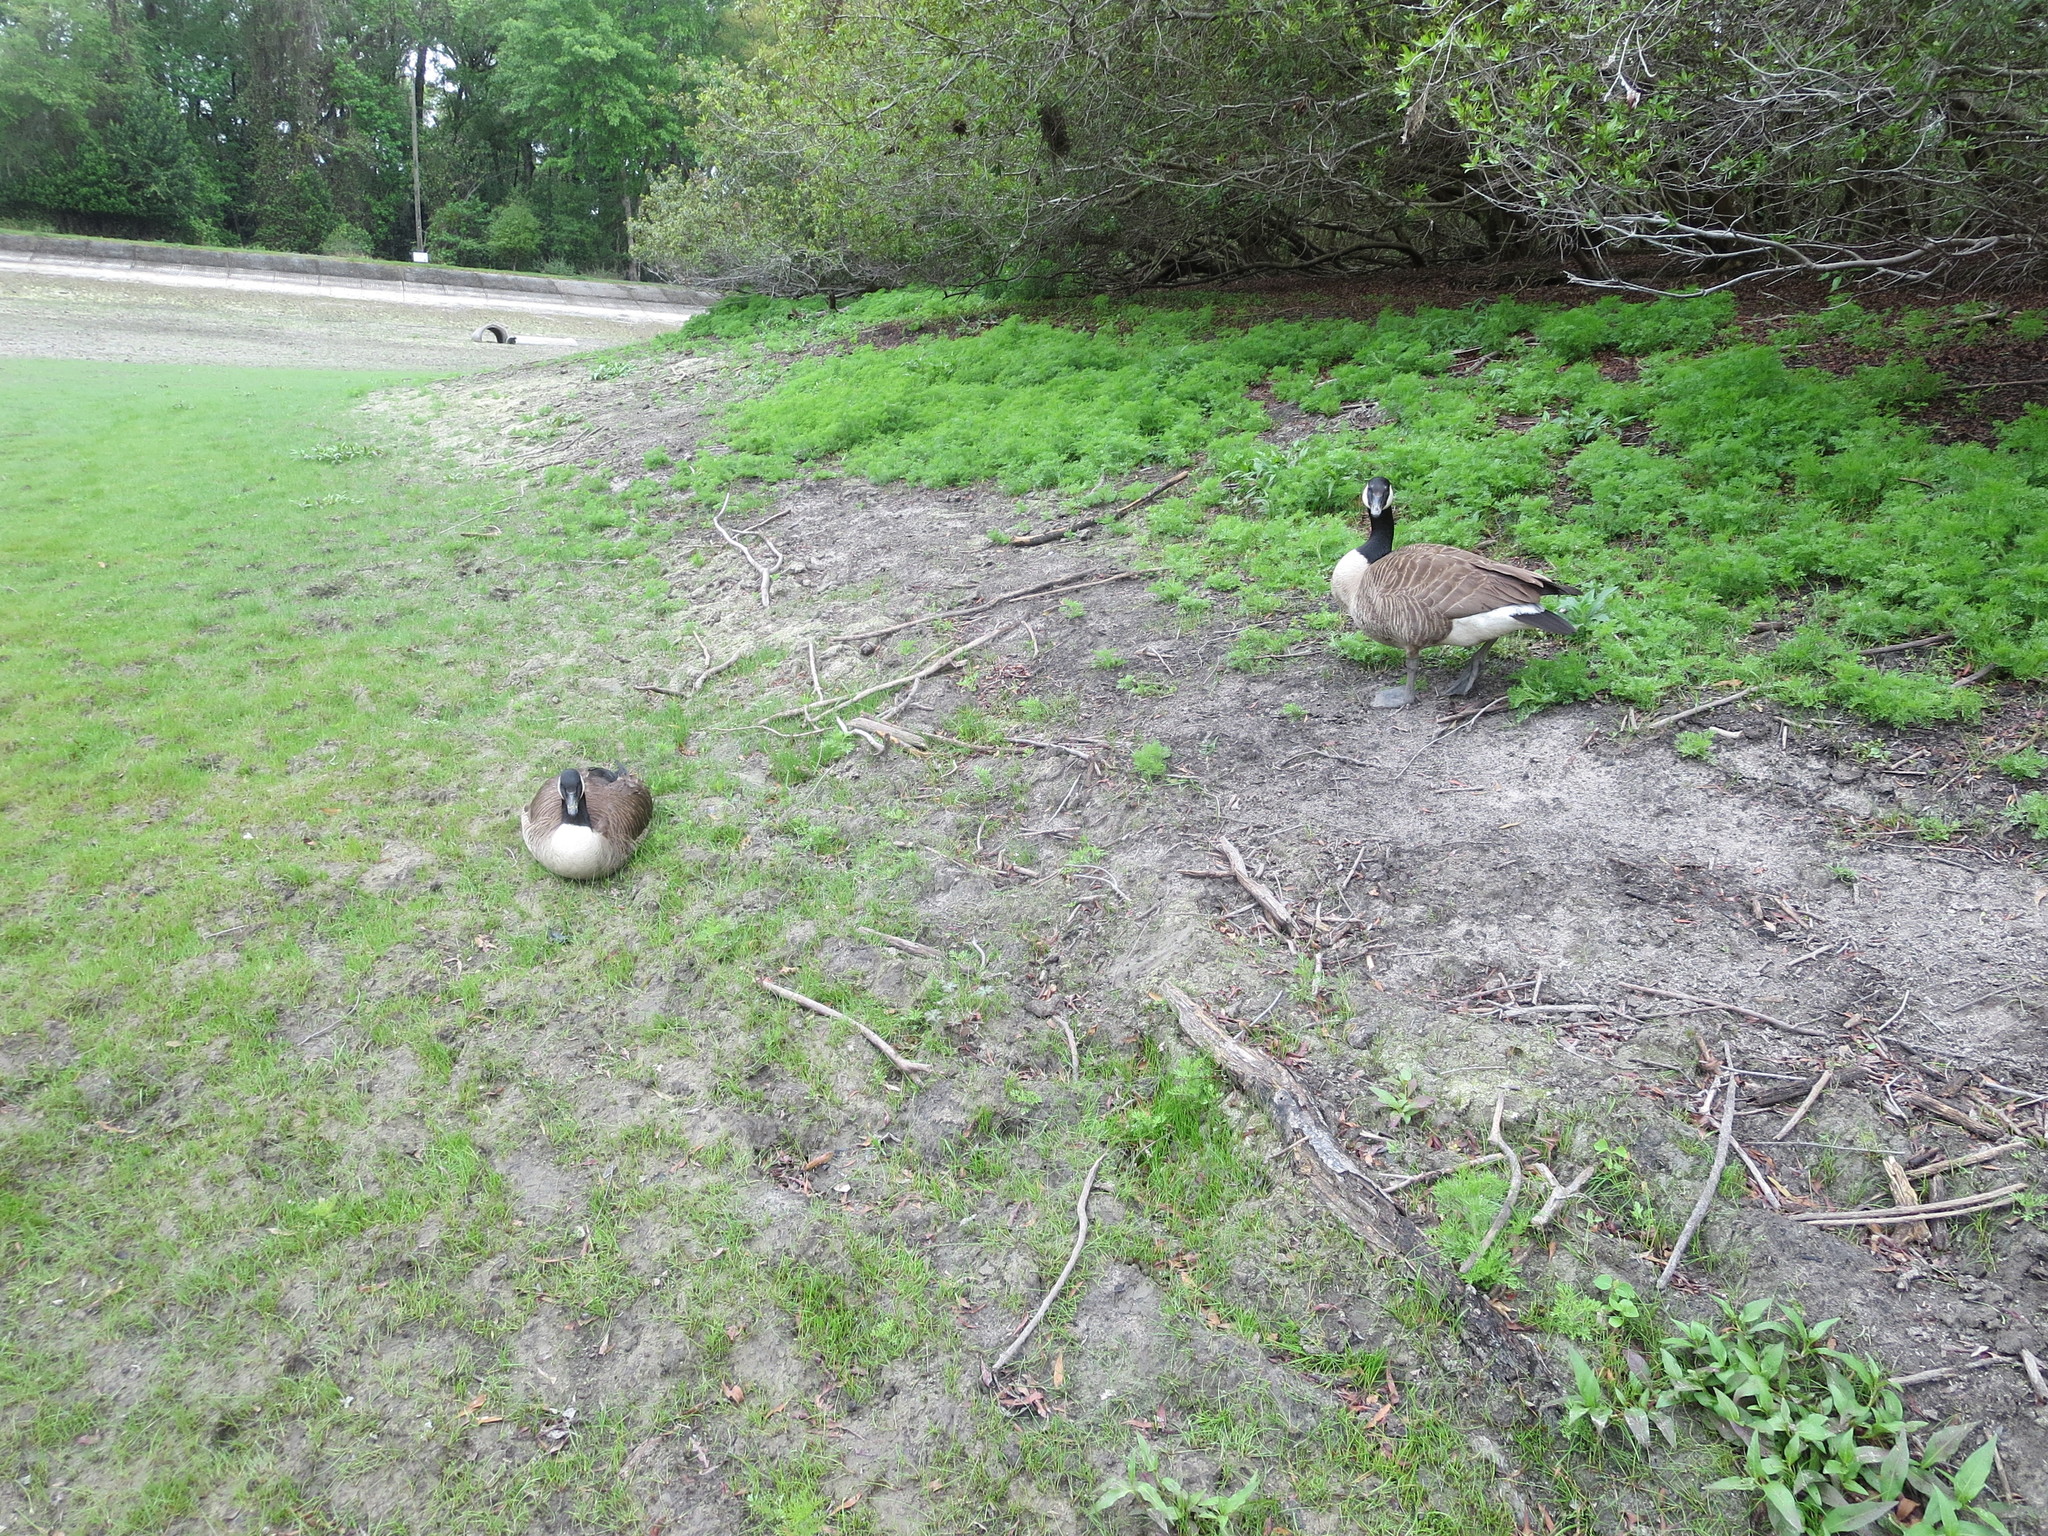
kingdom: Animalia
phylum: Chordata
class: Aves
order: Anseriformes
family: Anatidae
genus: Branta
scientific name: Branta canadensis
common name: Canada goose
